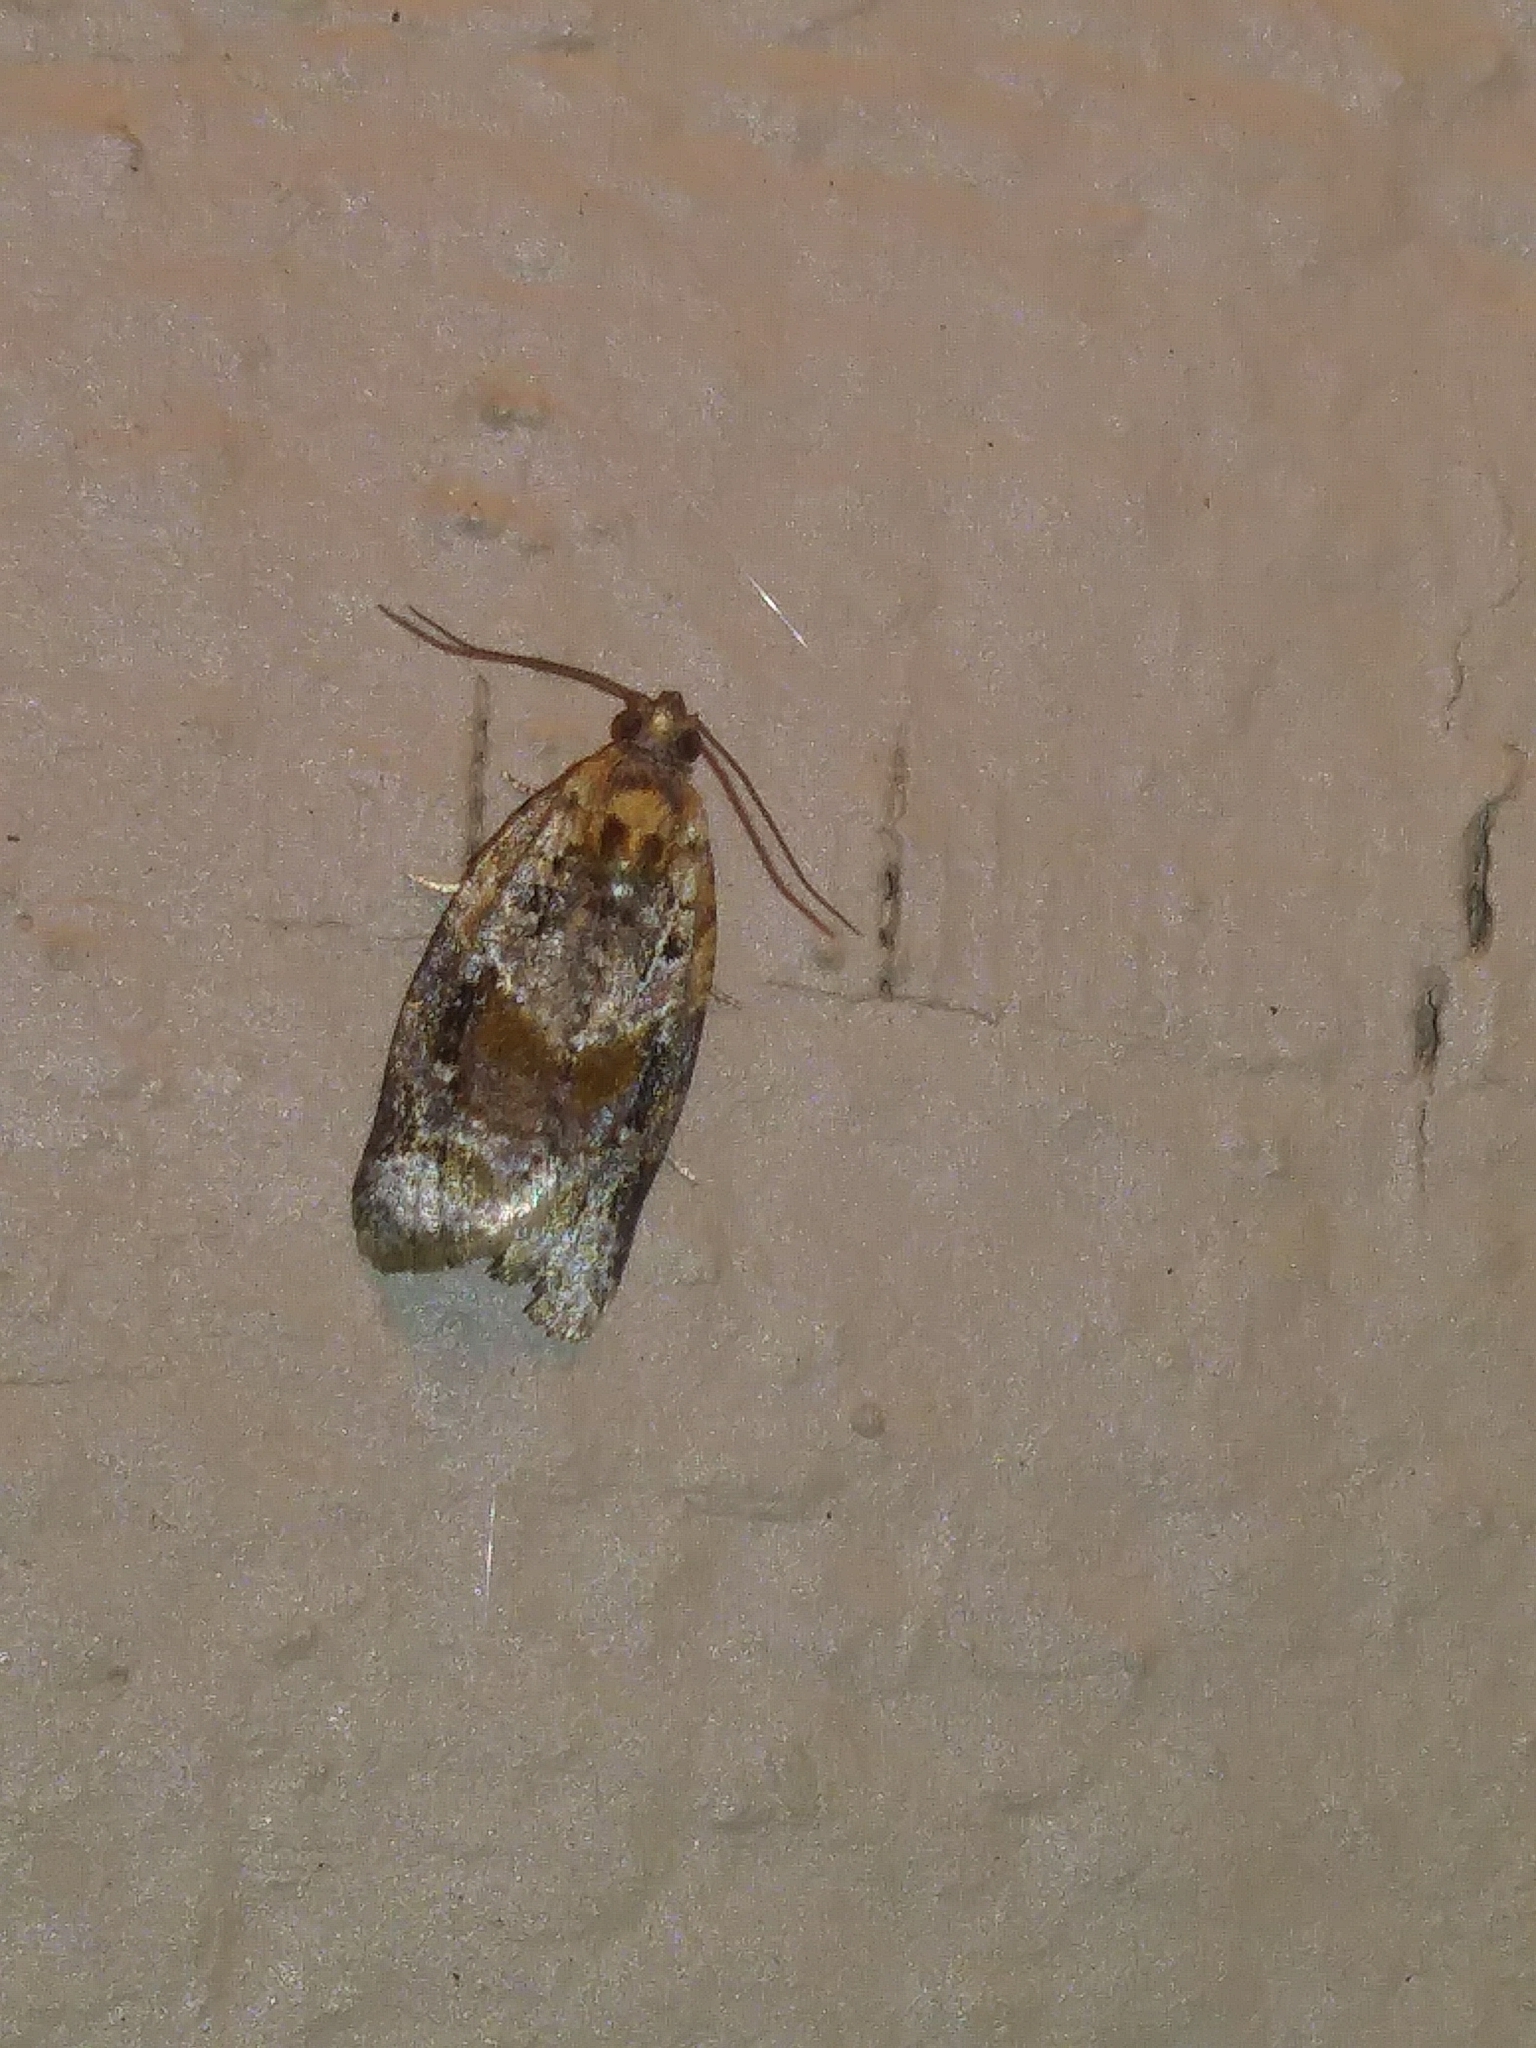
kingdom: Animalia
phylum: Arthropoda
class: Insecta
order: Lepidoptera
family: Tortricidae
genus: Argyrotaenia
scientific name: Argyrotaenia velutinana
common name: Red-banded leafroller moth
